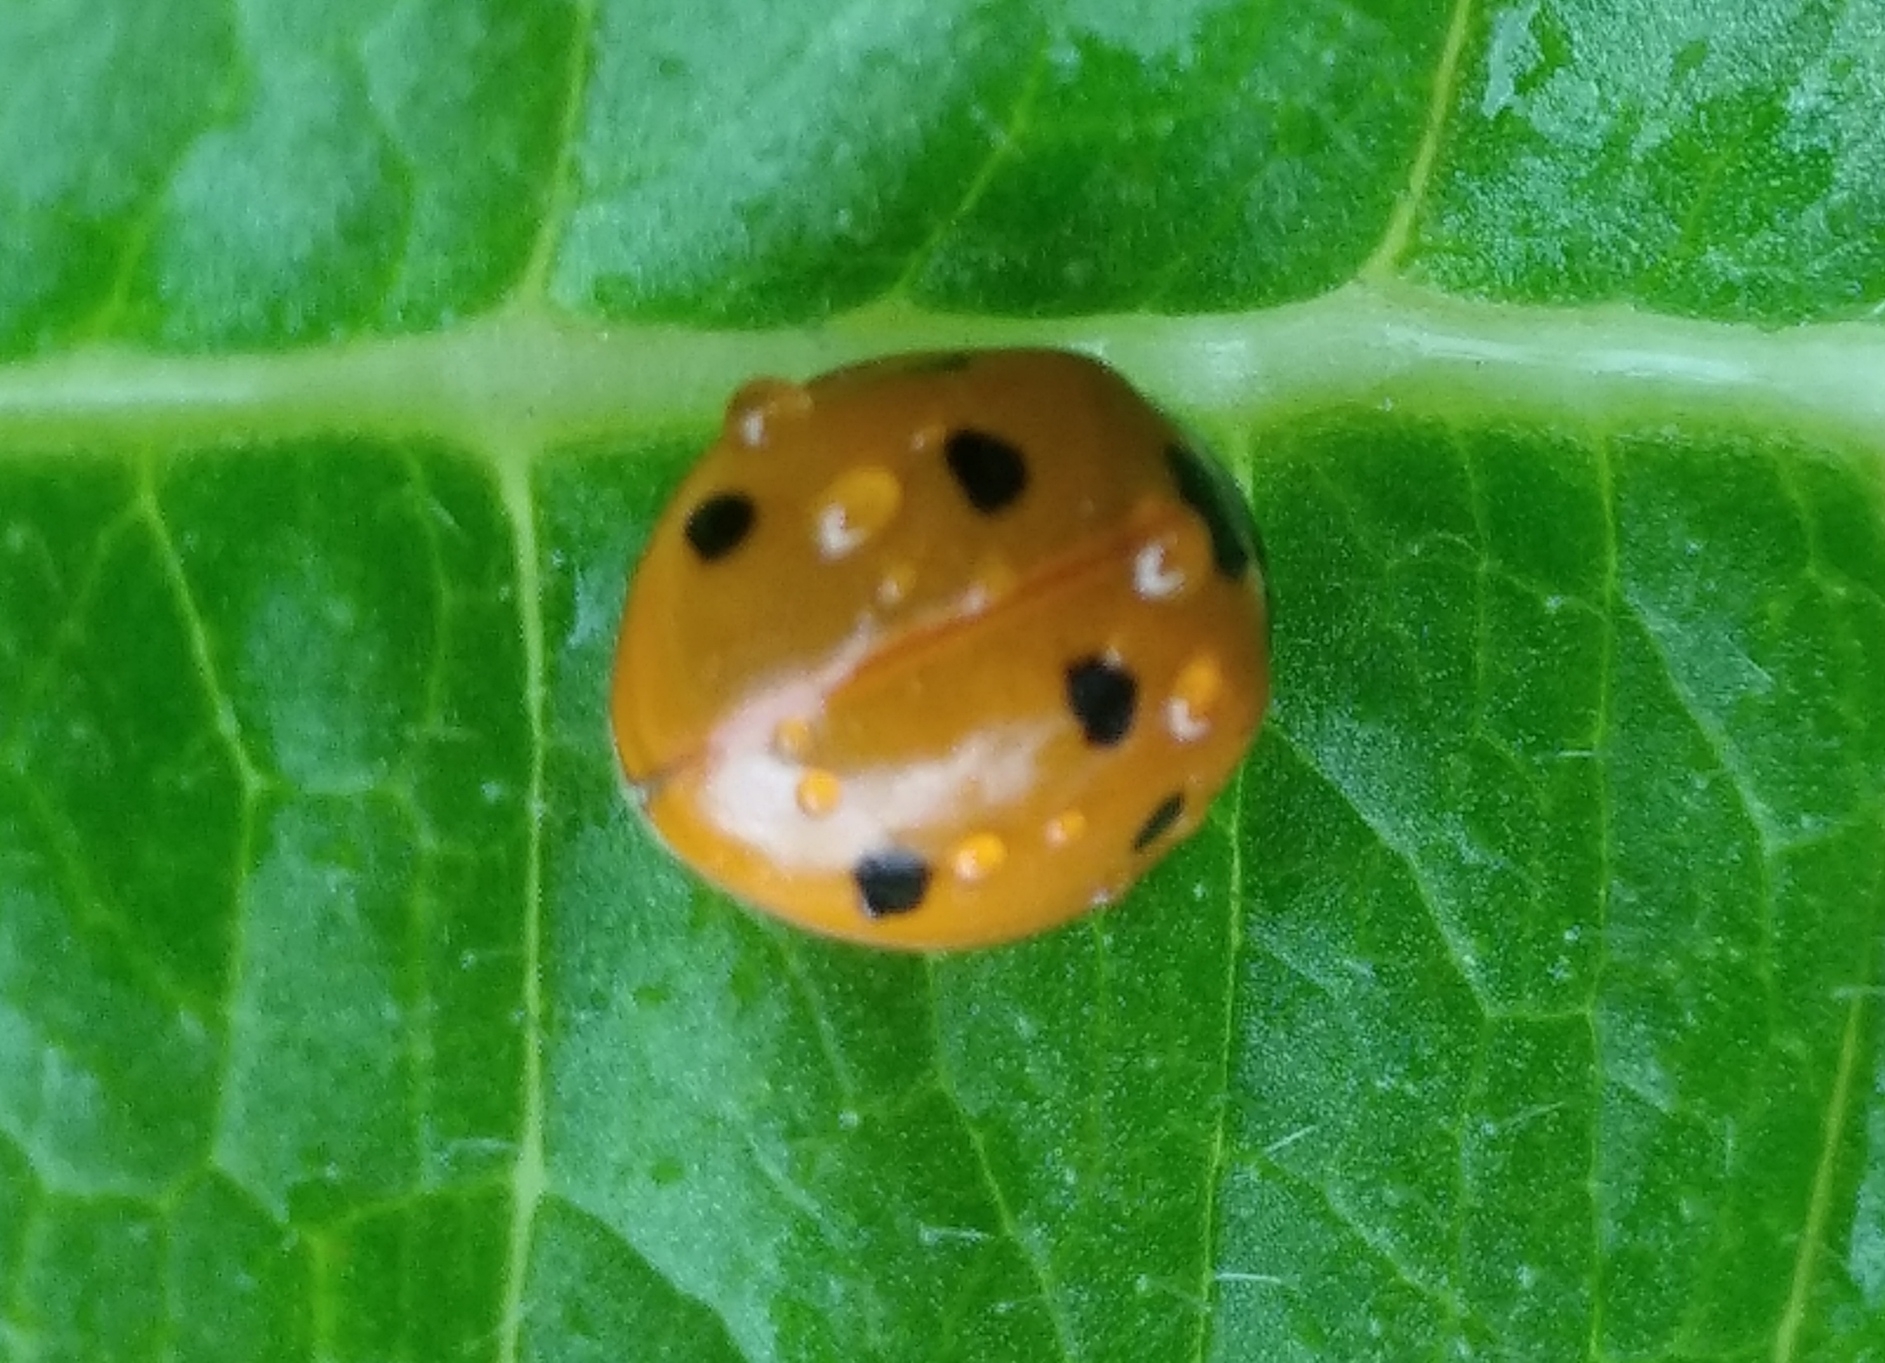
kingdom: Animalia
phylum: Arthropoda
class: Insecta
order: Coleoptera
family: Coccinellidae
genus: Coccinella
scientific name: Coccinella septempunctata
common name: Sevenspotted lady beetle
